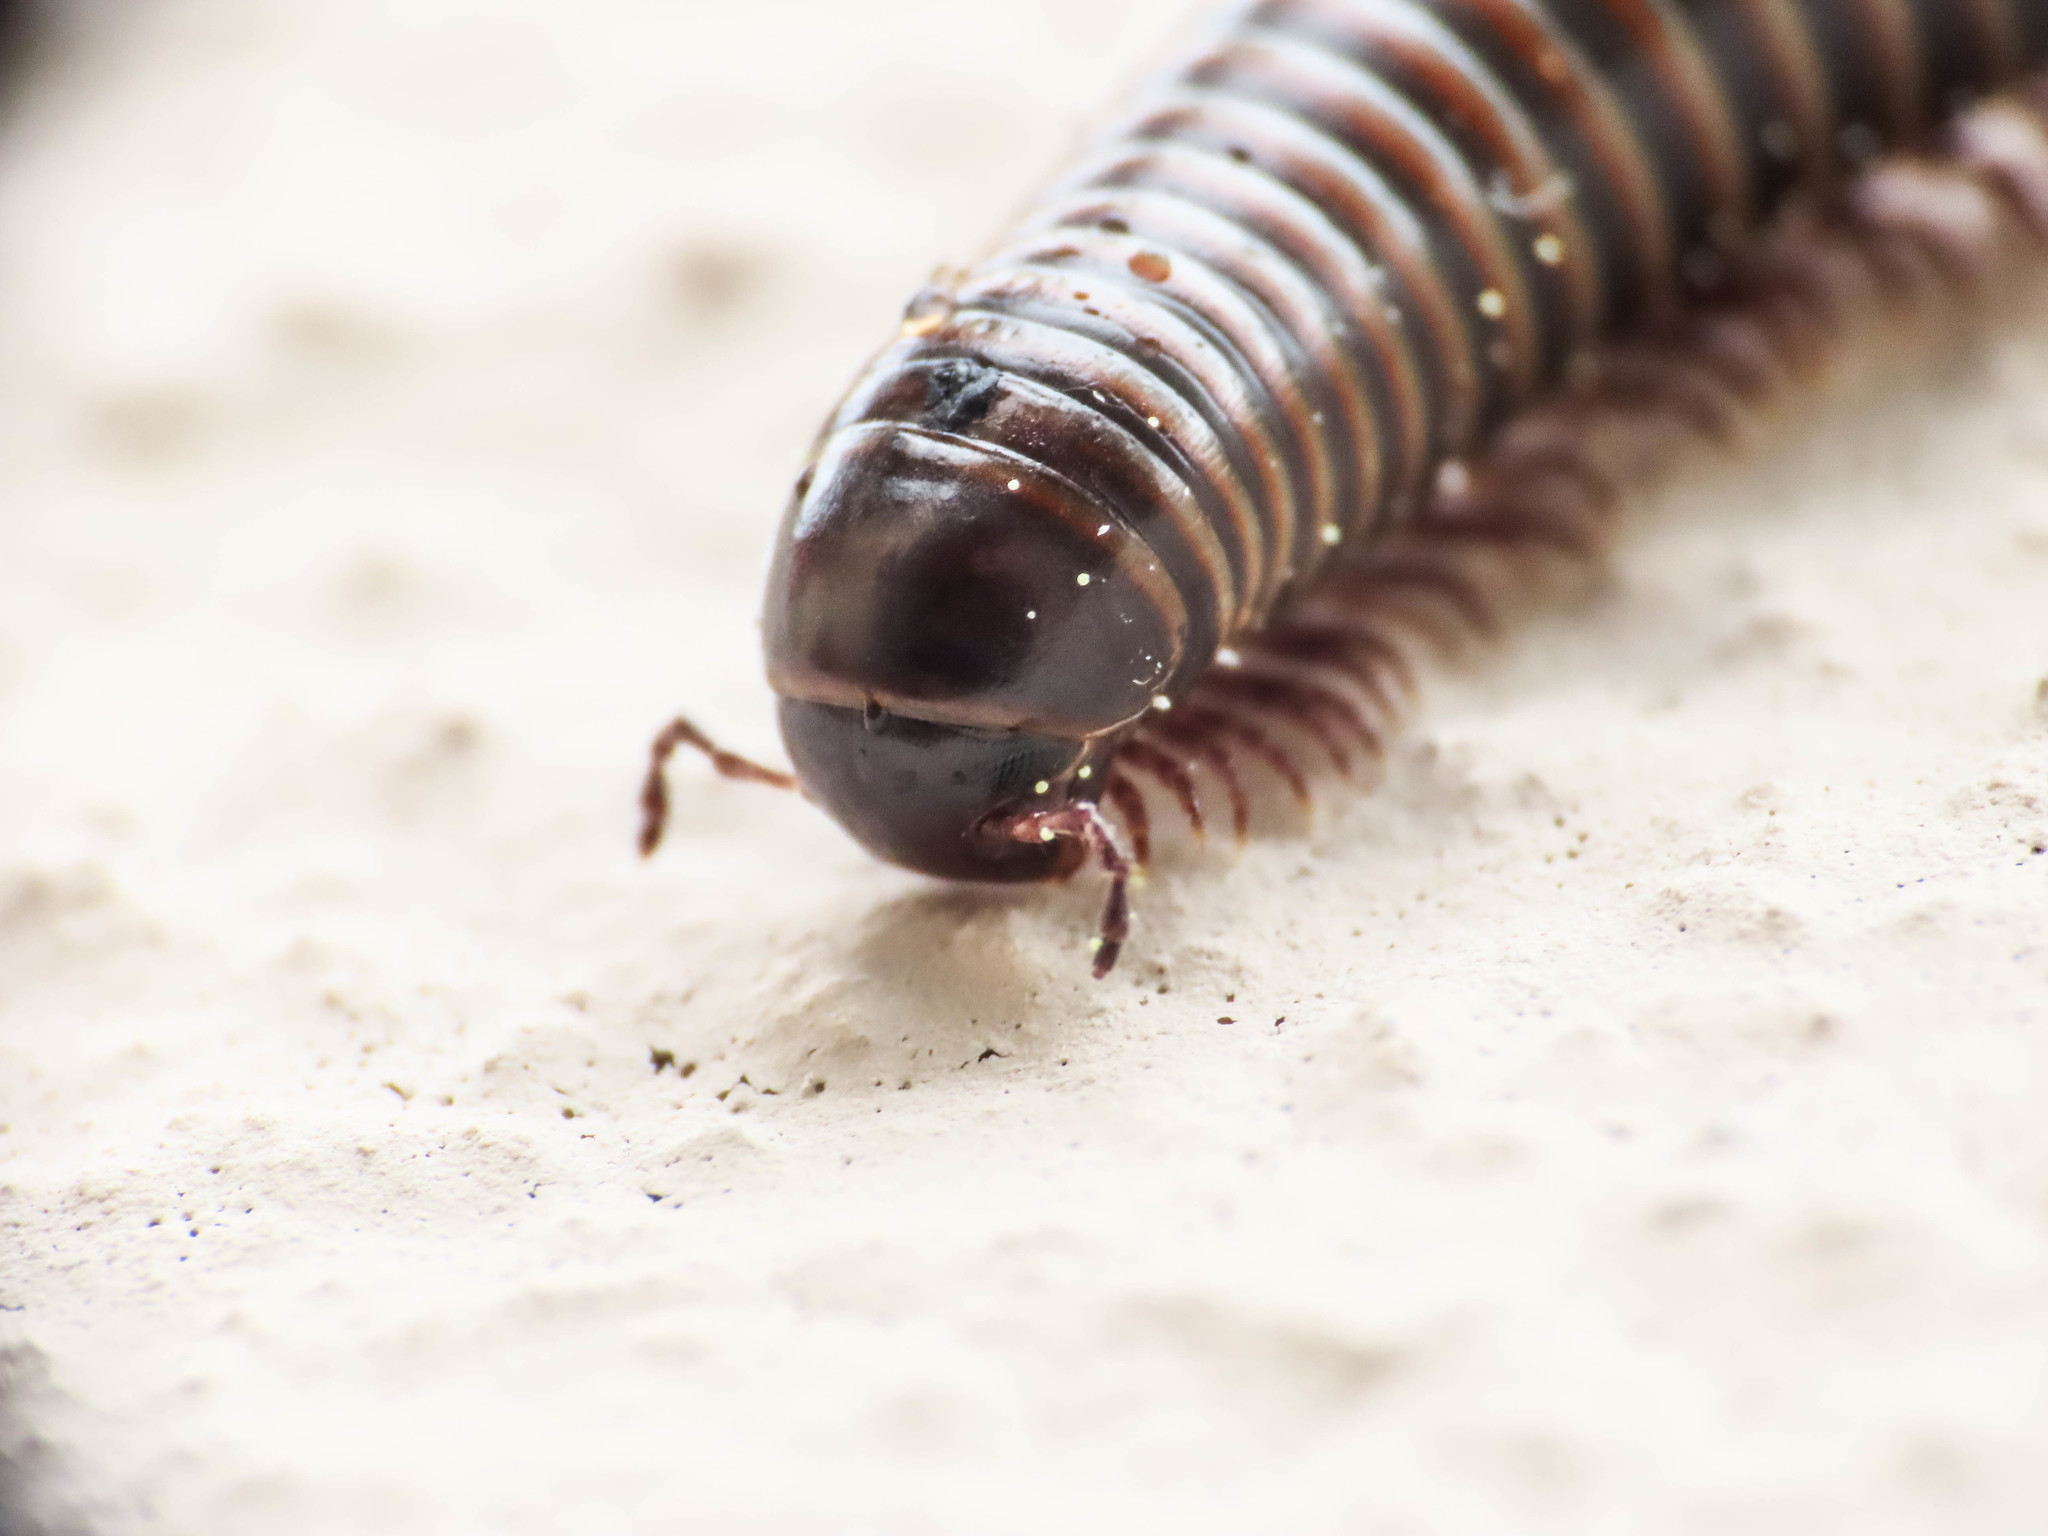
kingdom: Animalia
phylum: Arthropoda
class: Diplopoda
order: Julida
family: Julidae
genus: Acanthoiulus
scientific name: Acanthoiulus cassinensis
